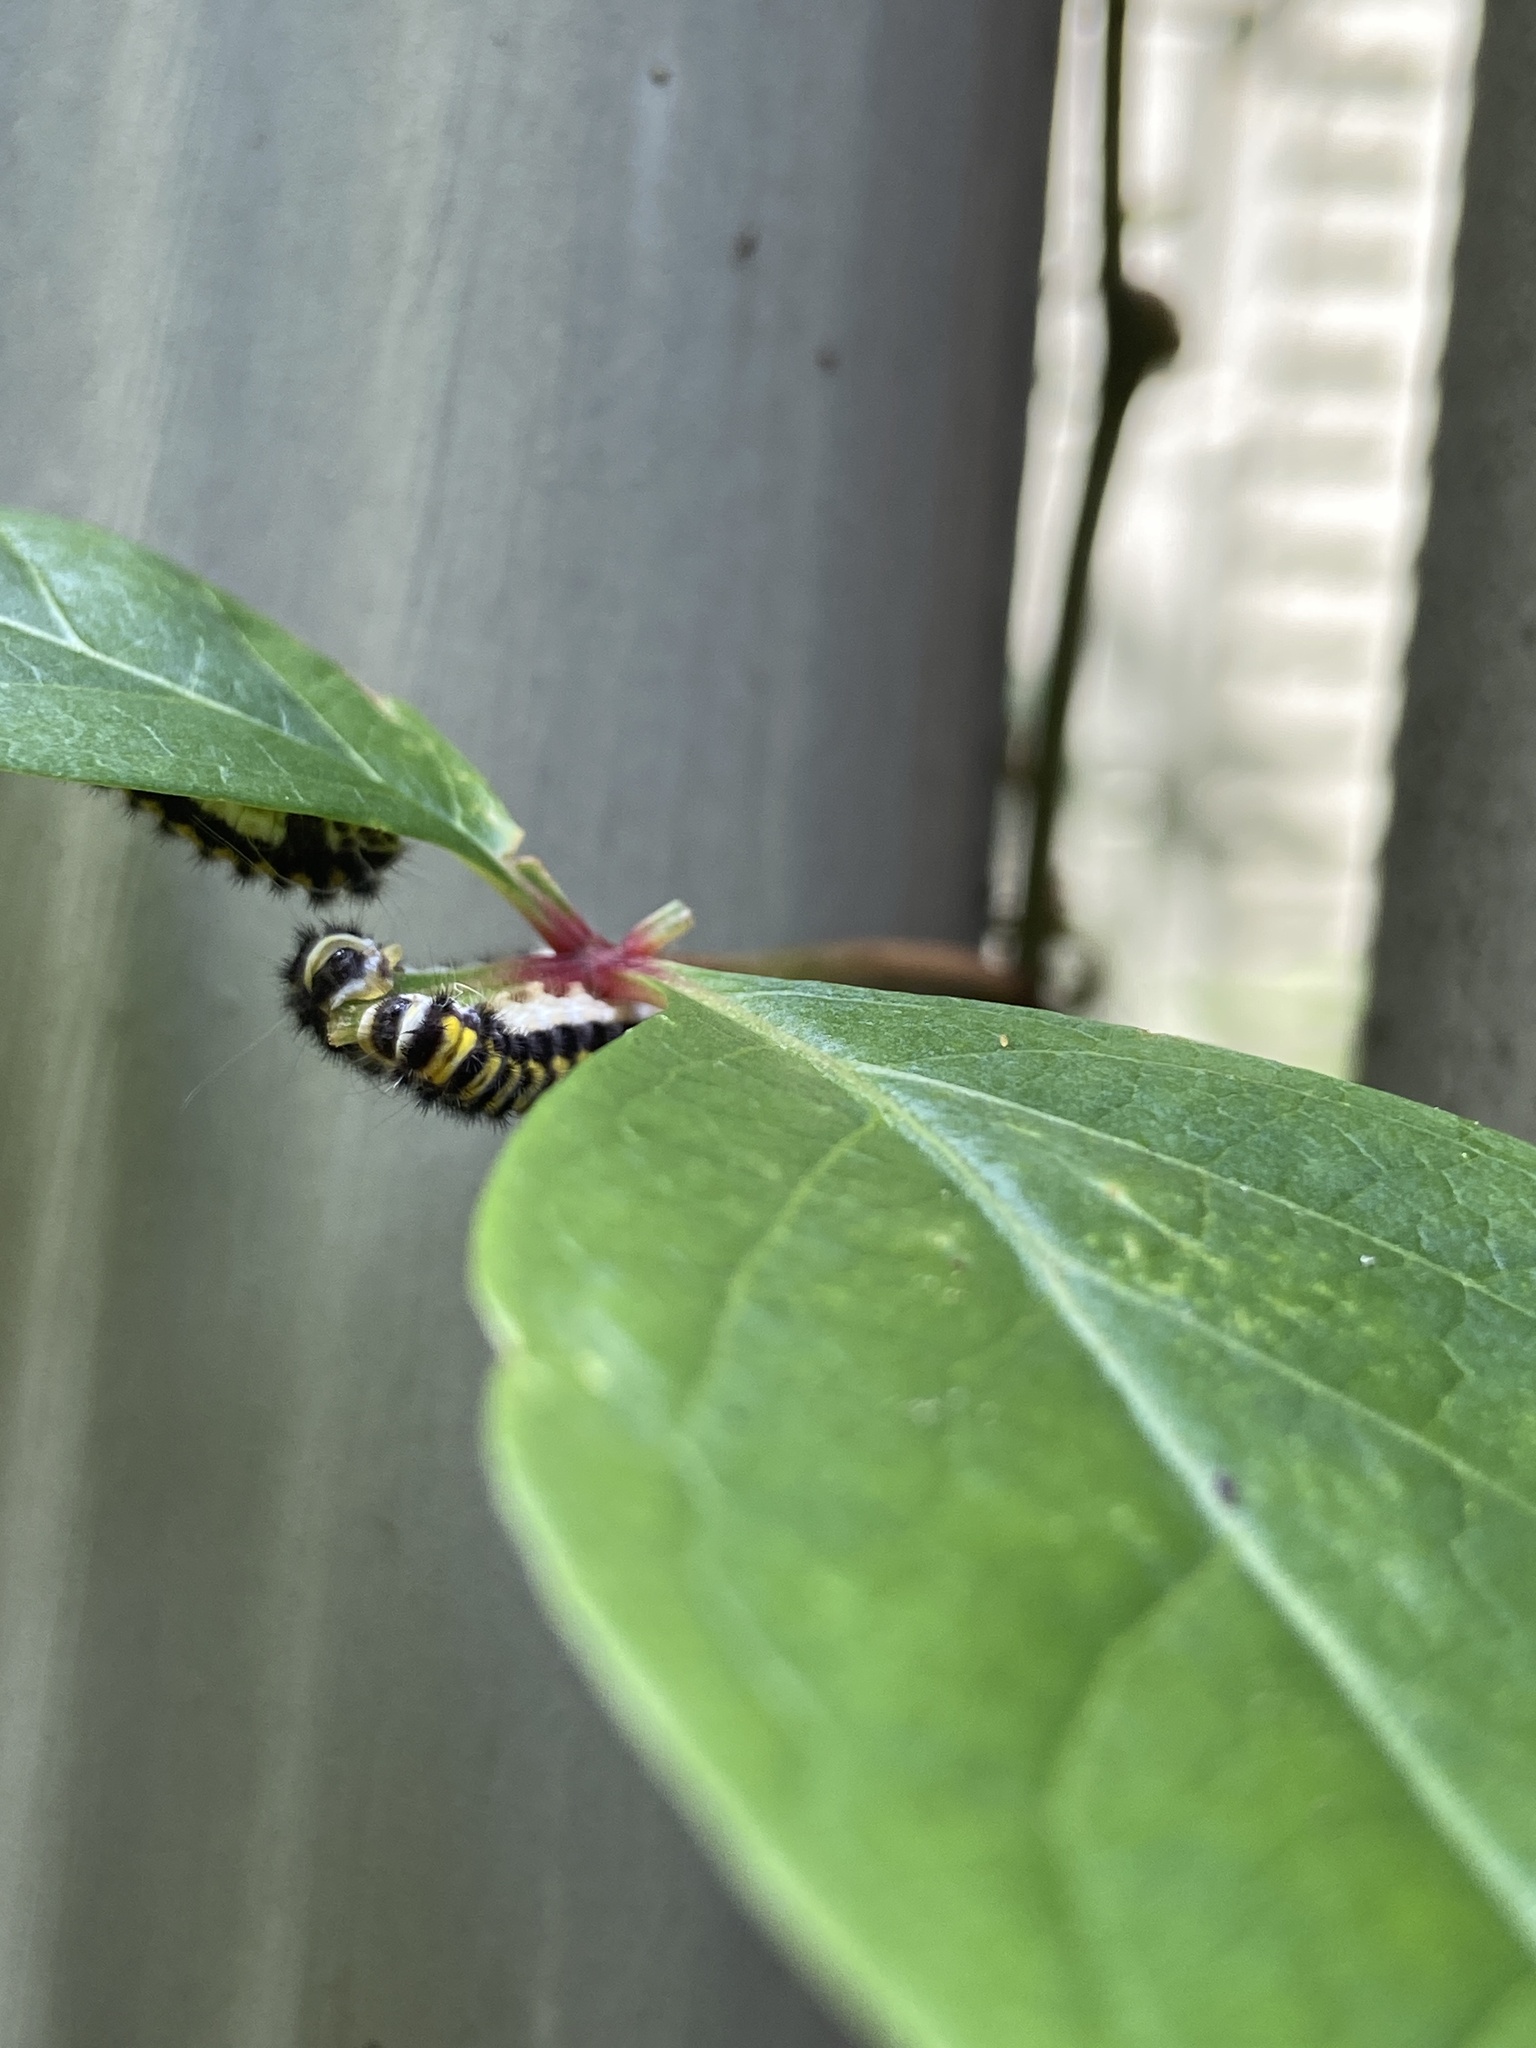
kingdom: Animalia
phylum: Arthropoda
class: Insecta
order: Lepidoptera
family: Zygaenidae
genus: Harrisina
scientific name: Harrisina americana
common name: Grapeleaf skeletonizer moth
